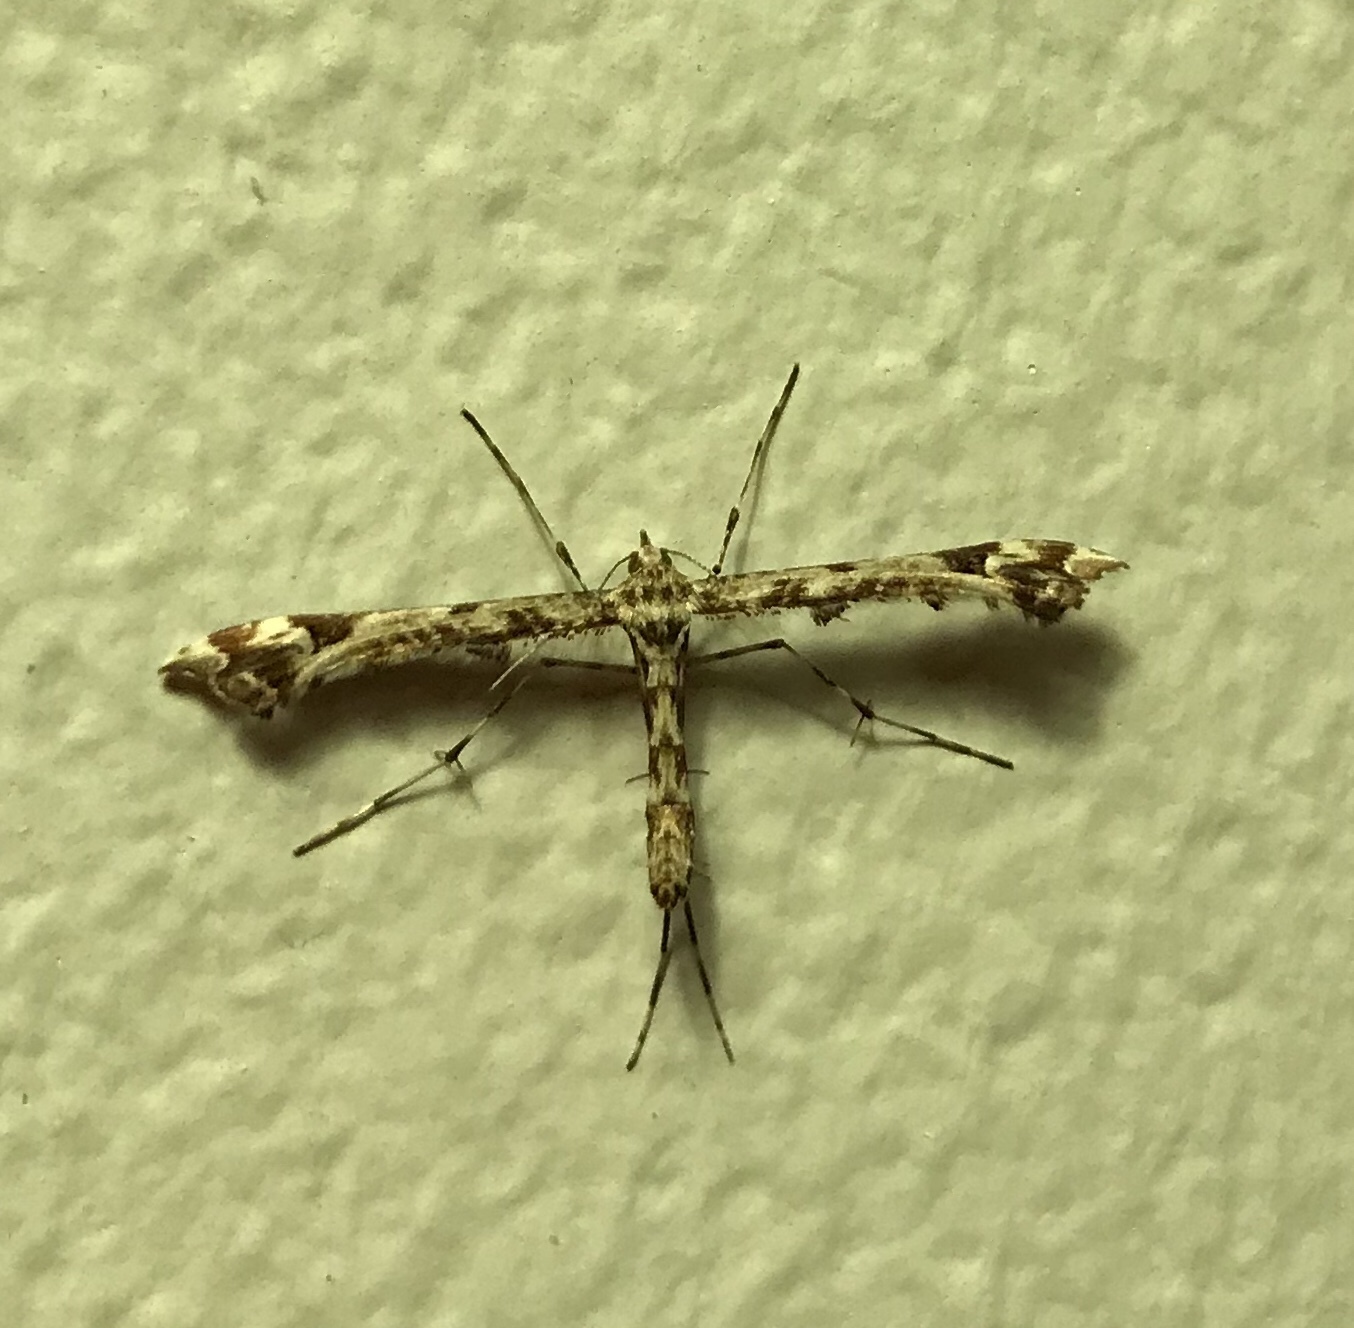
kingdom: Animalia
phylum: Arthropoda
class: Insecta
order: Lepidoptera
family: Pterophoridae
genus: Amblyptilia
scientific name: Amblyptilia pica
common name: Geranium plume moth
